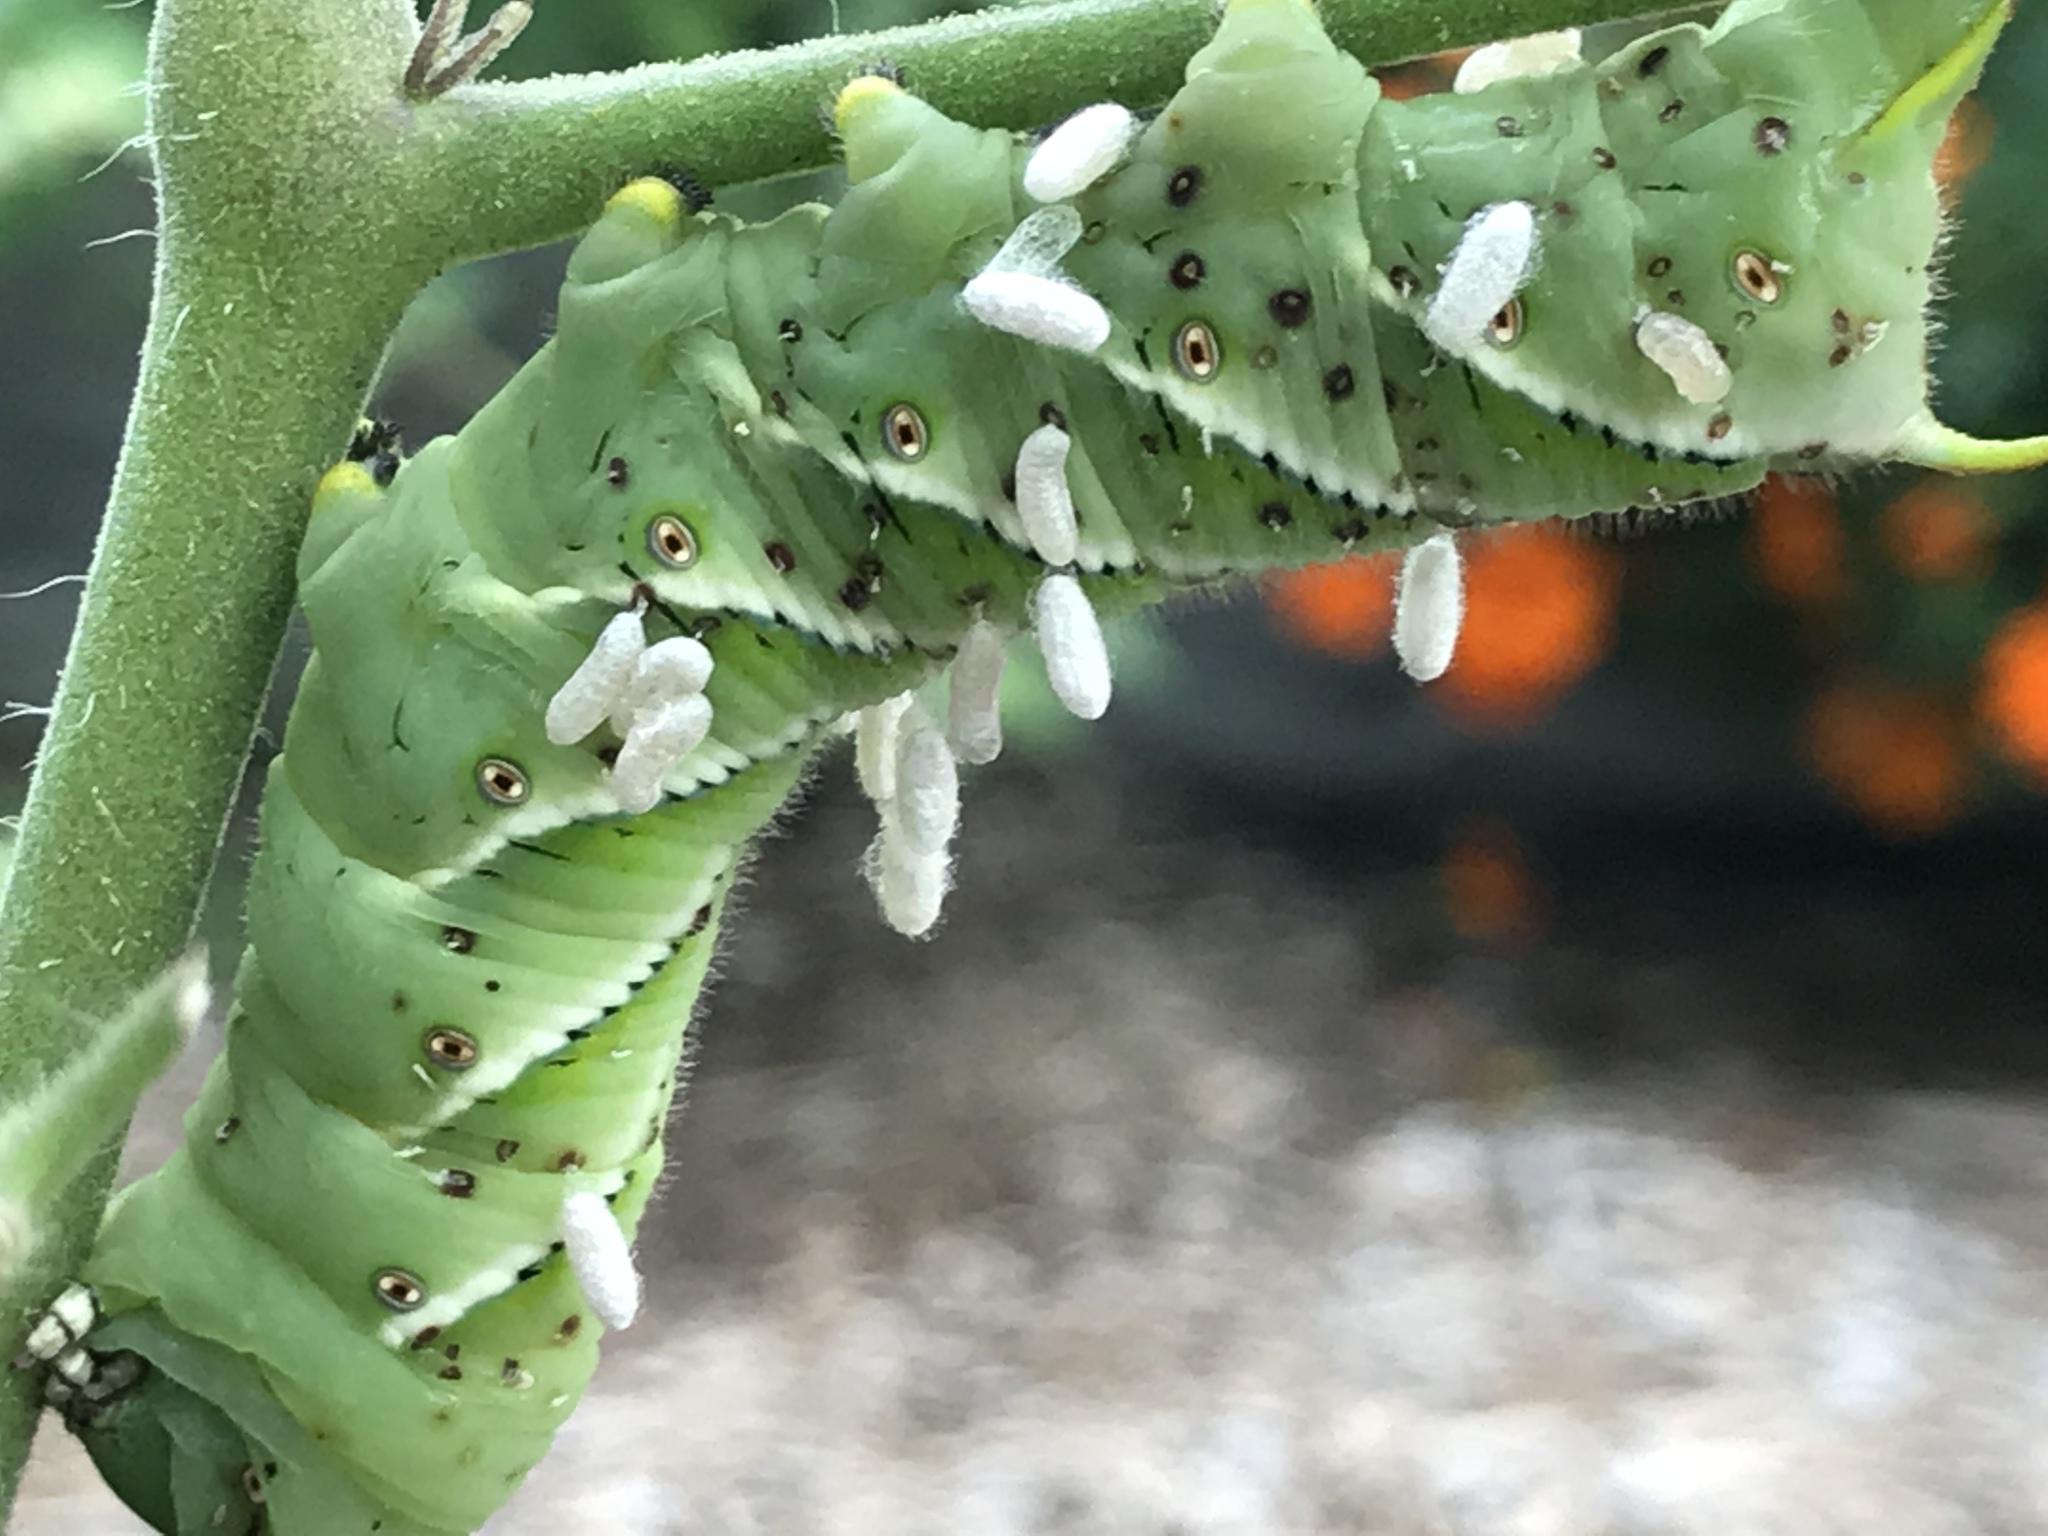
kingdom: Animalia
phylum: Arthropoda
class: Insecta
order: Lepidoptera
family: Sphingidae
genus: Manduca
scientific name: Manduca sexta
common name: Carolina sphinx
